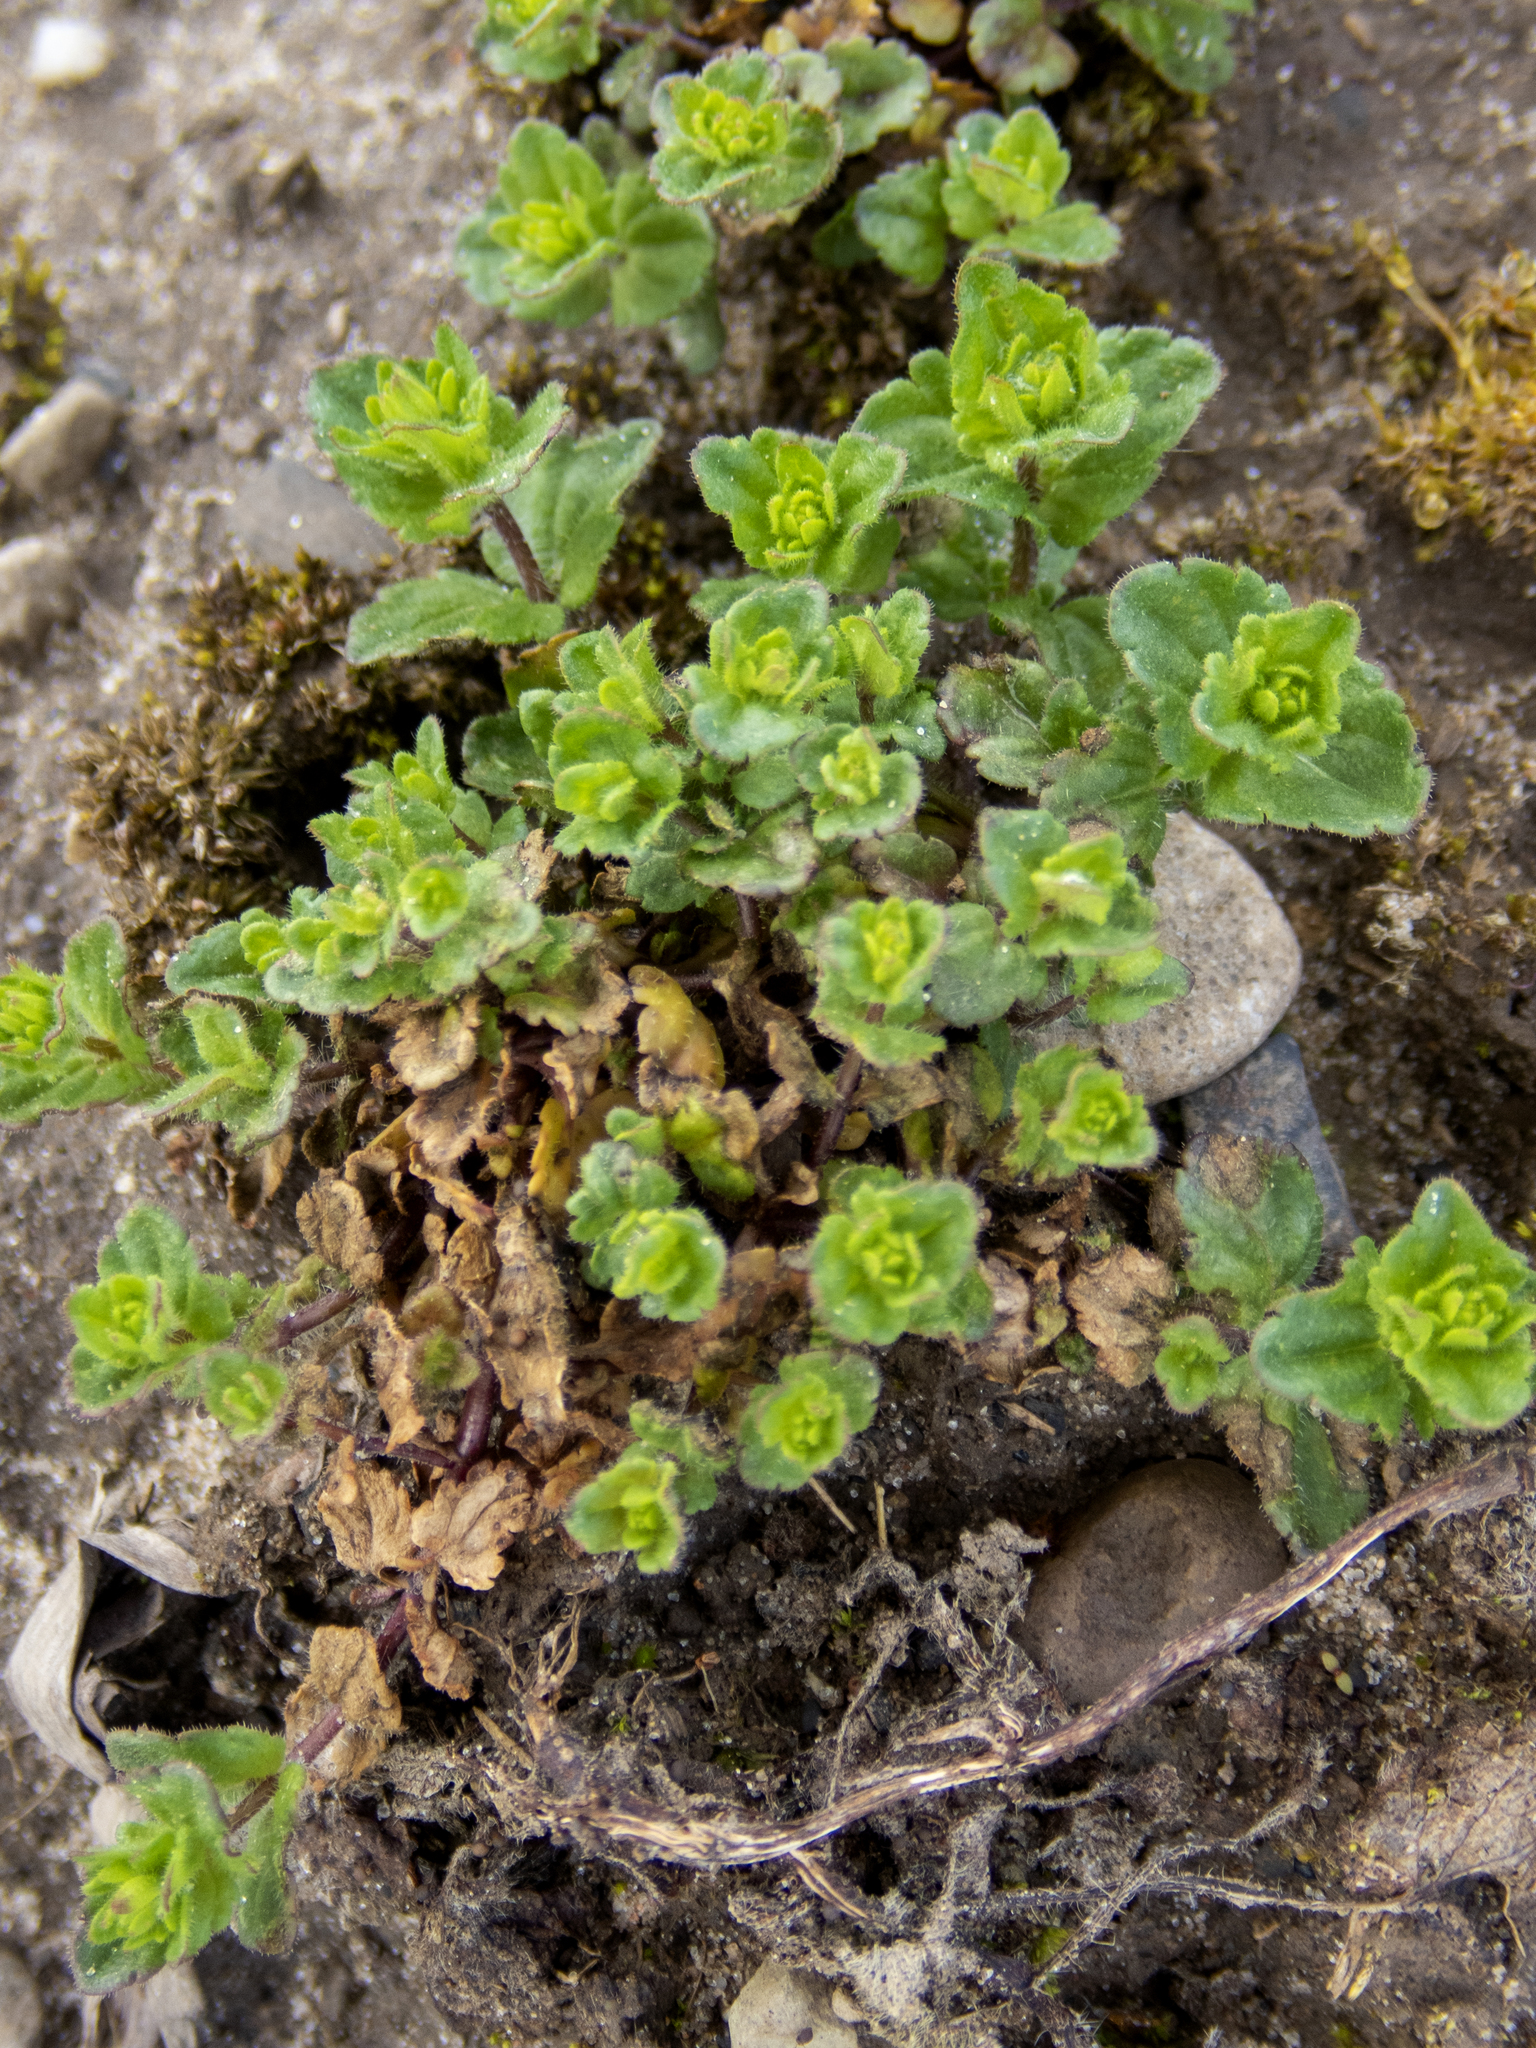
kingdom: Plantae
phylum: Tracheophyta
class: Magnoliopsida
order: Lamiales
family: Plantaginaceae
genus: Veronica
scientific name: Veronica arvensis
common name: Corn speedwell
